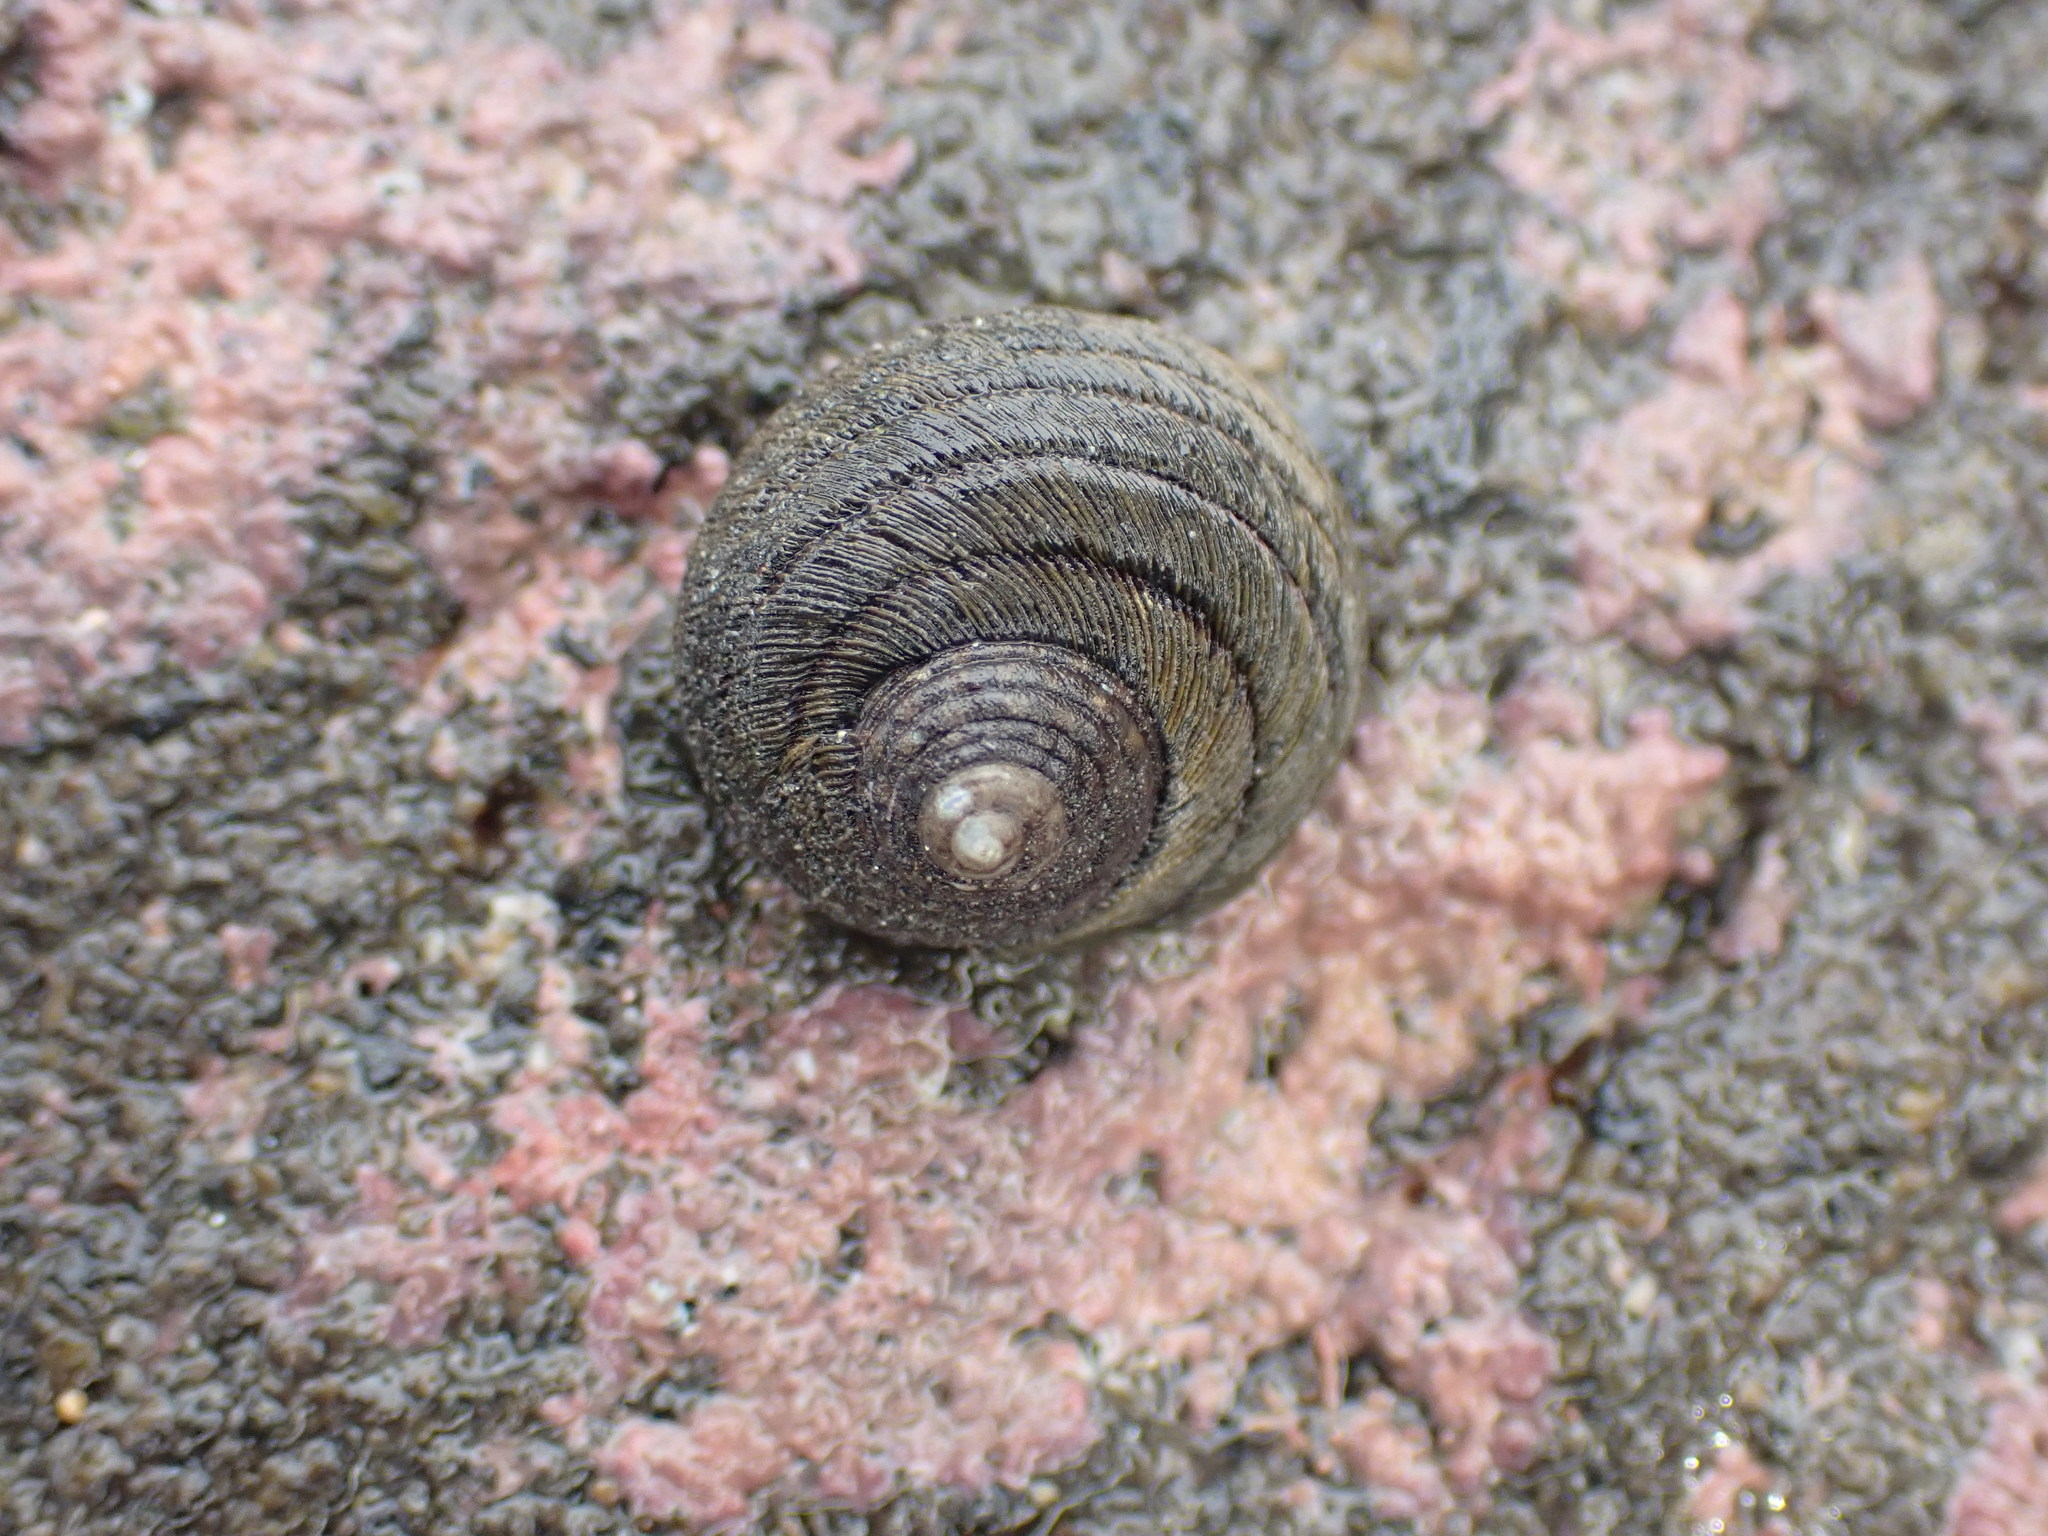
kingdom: Animalia
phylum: Mollusca
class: Gastropoda
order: Trochida
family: Trochidae
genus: Diloma
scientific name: Diloma aethiops
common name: Scorched monodont
